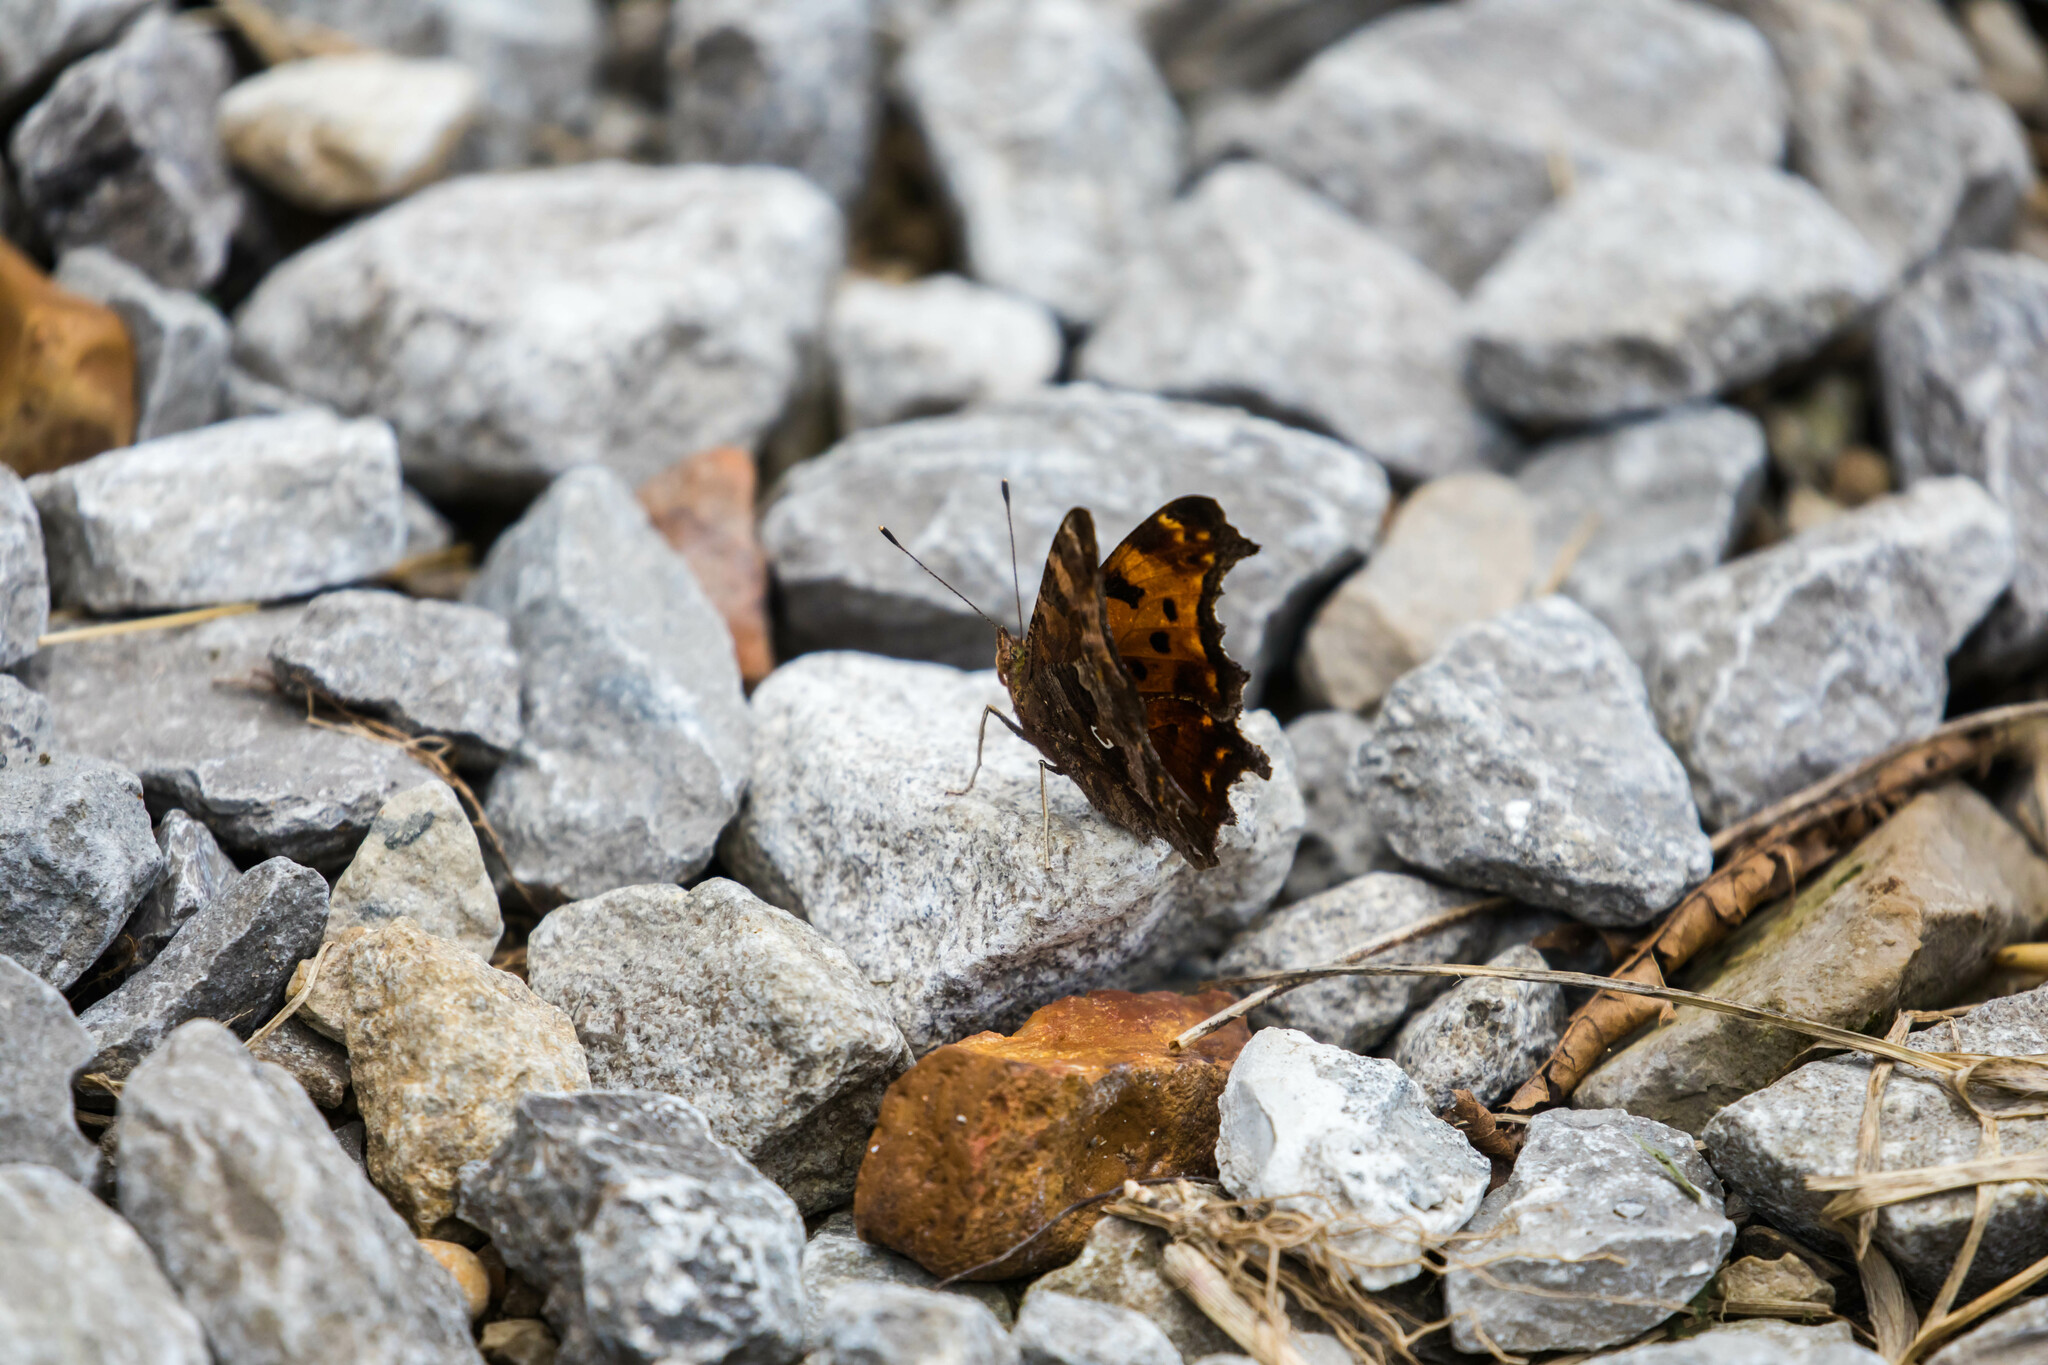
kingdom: Animalia
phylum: Arthropoda
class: Insecta
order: Lepidoptera
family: Nymphalidae
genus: Polygonia
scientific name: Polygonia comma
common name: Eastern comma
